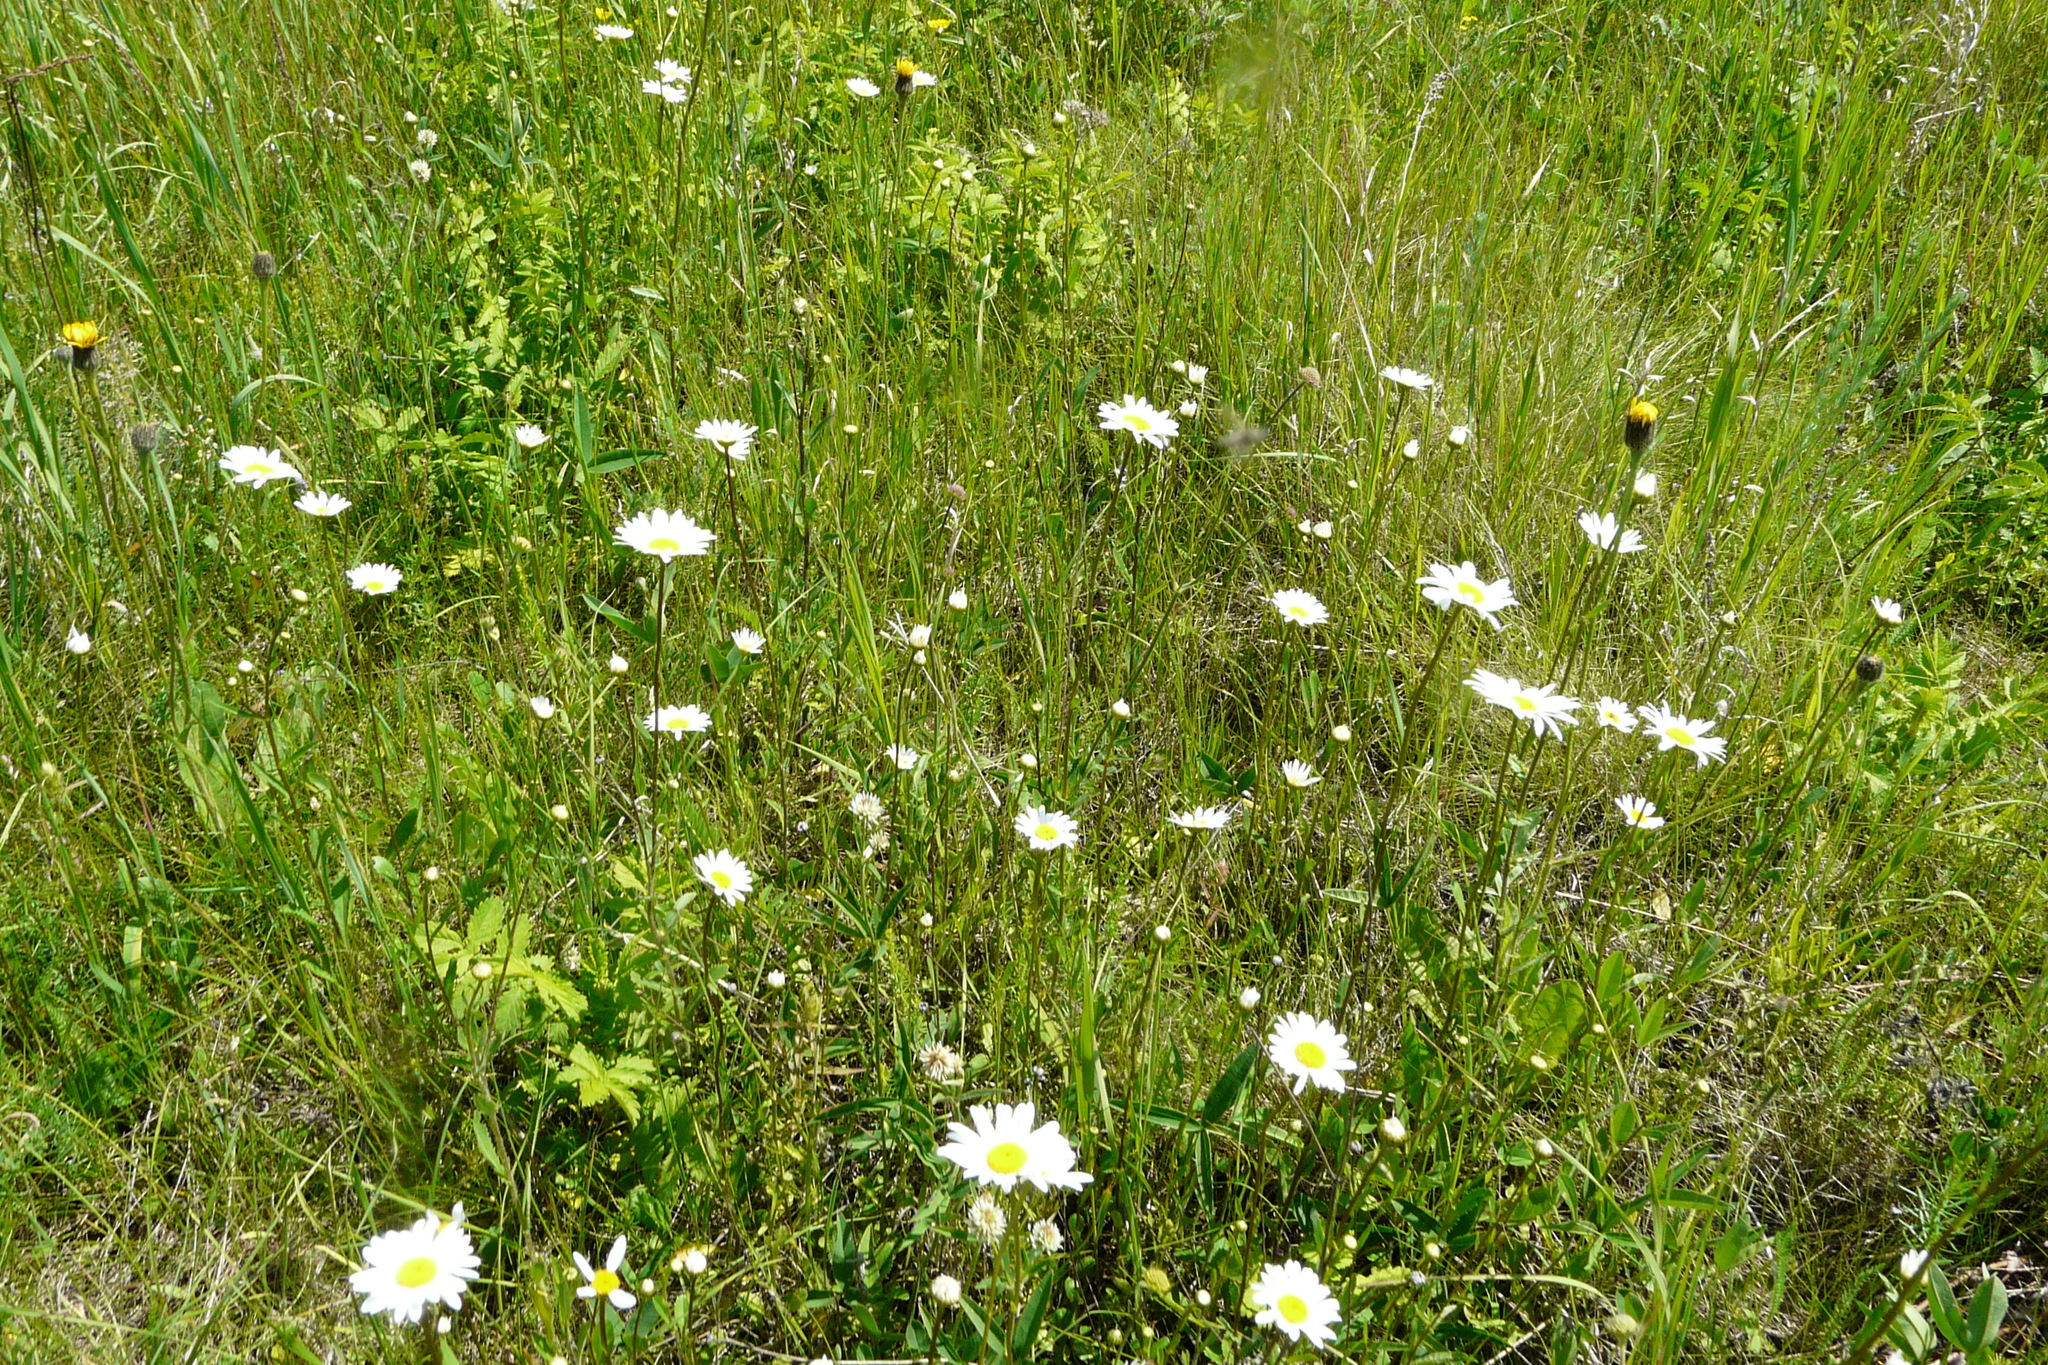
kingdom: Plantae
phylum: Tracheophyta
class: Magnoliopsida
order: Asterales
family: Asteraceae
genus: Leucanthemum
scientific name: Leucanthemum vulgare
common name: Oxeye daisy
